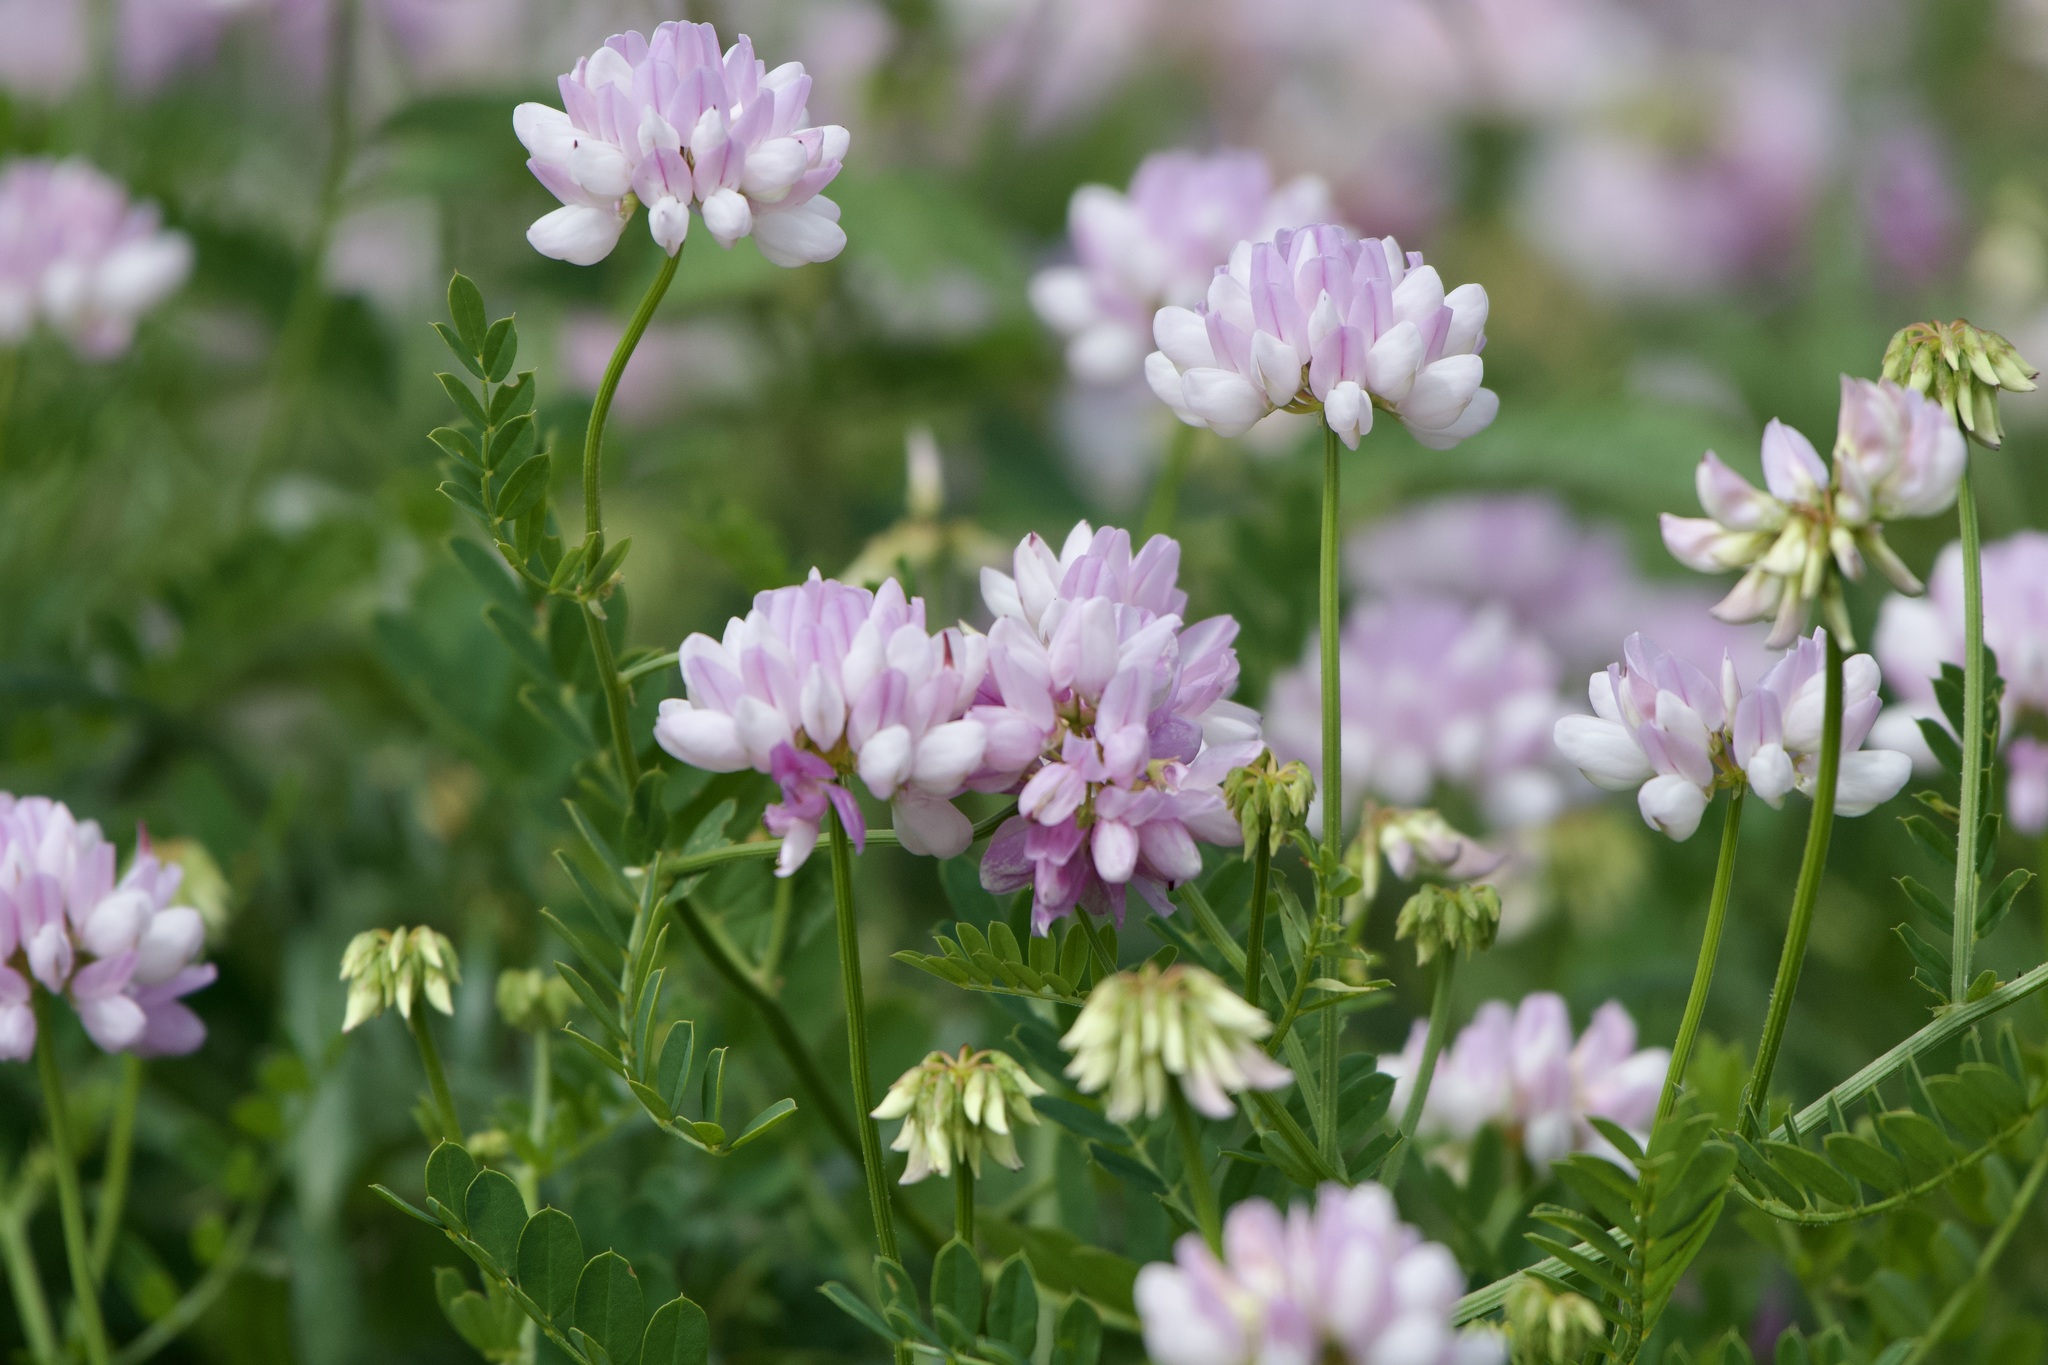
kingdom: Plantae
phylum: Tracheophyta
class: Magnoliopsida
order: Fabales
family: Fabaceae
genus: Coronilla
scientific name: Coronilla varia
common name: Crownvetch
